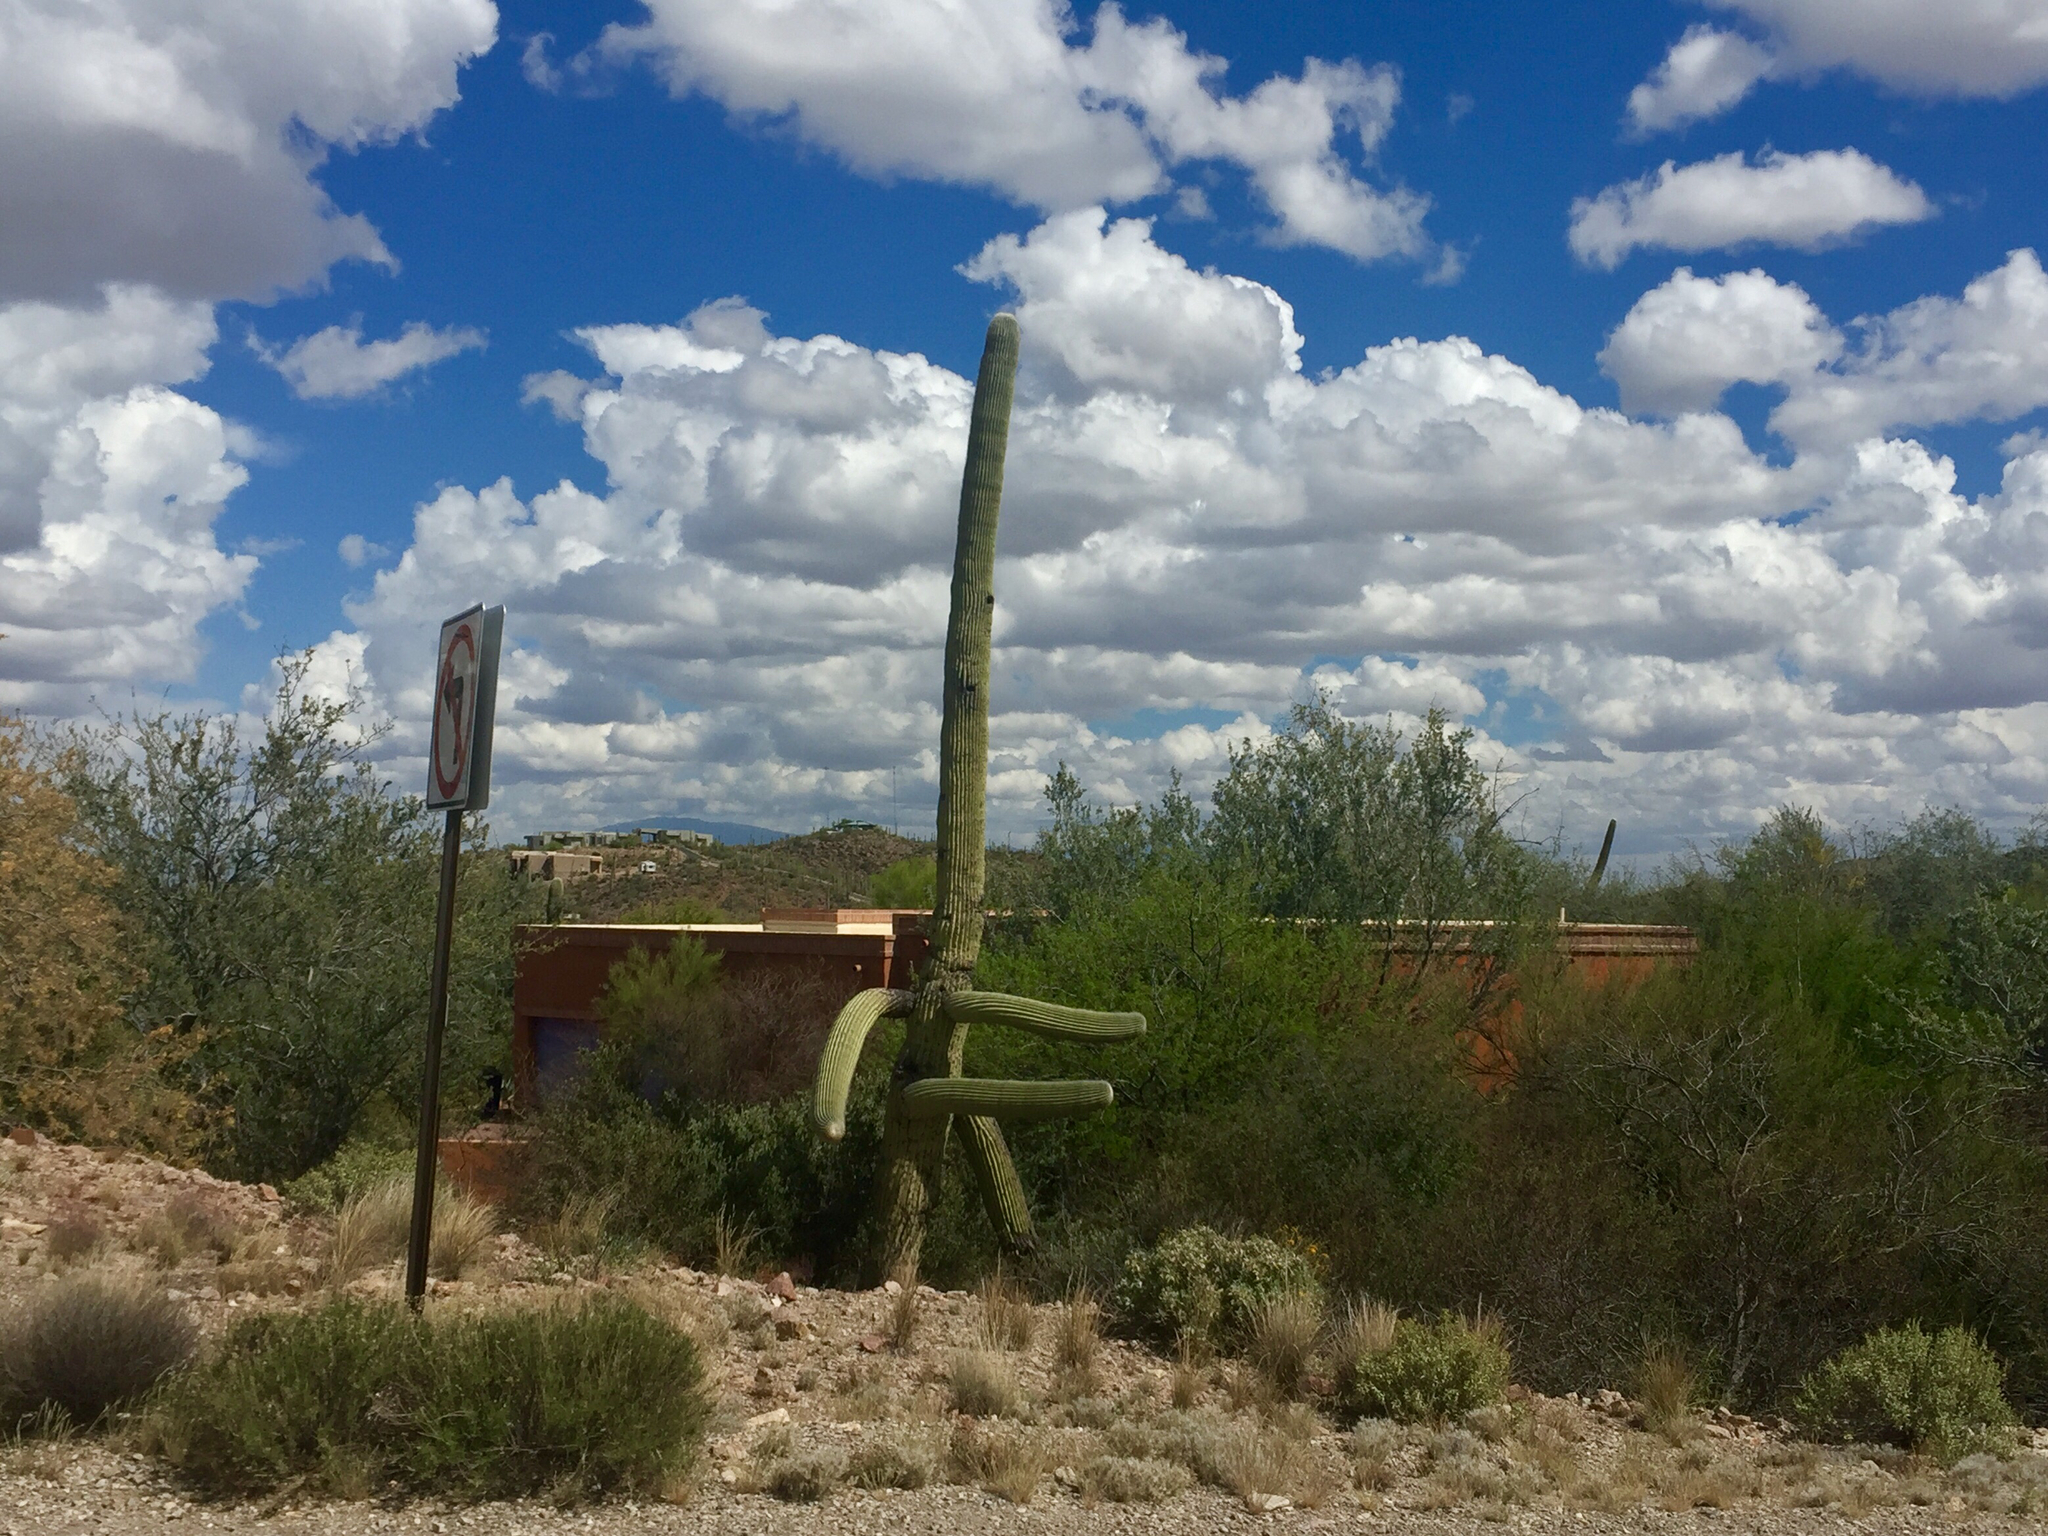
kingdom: Plantae
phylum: Tracheophyta
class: Magnoliopsida
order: Caryophyllales
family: Cactaceae
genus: Carnegiea
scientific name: Carnegiea gigantea
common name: Saguaro
